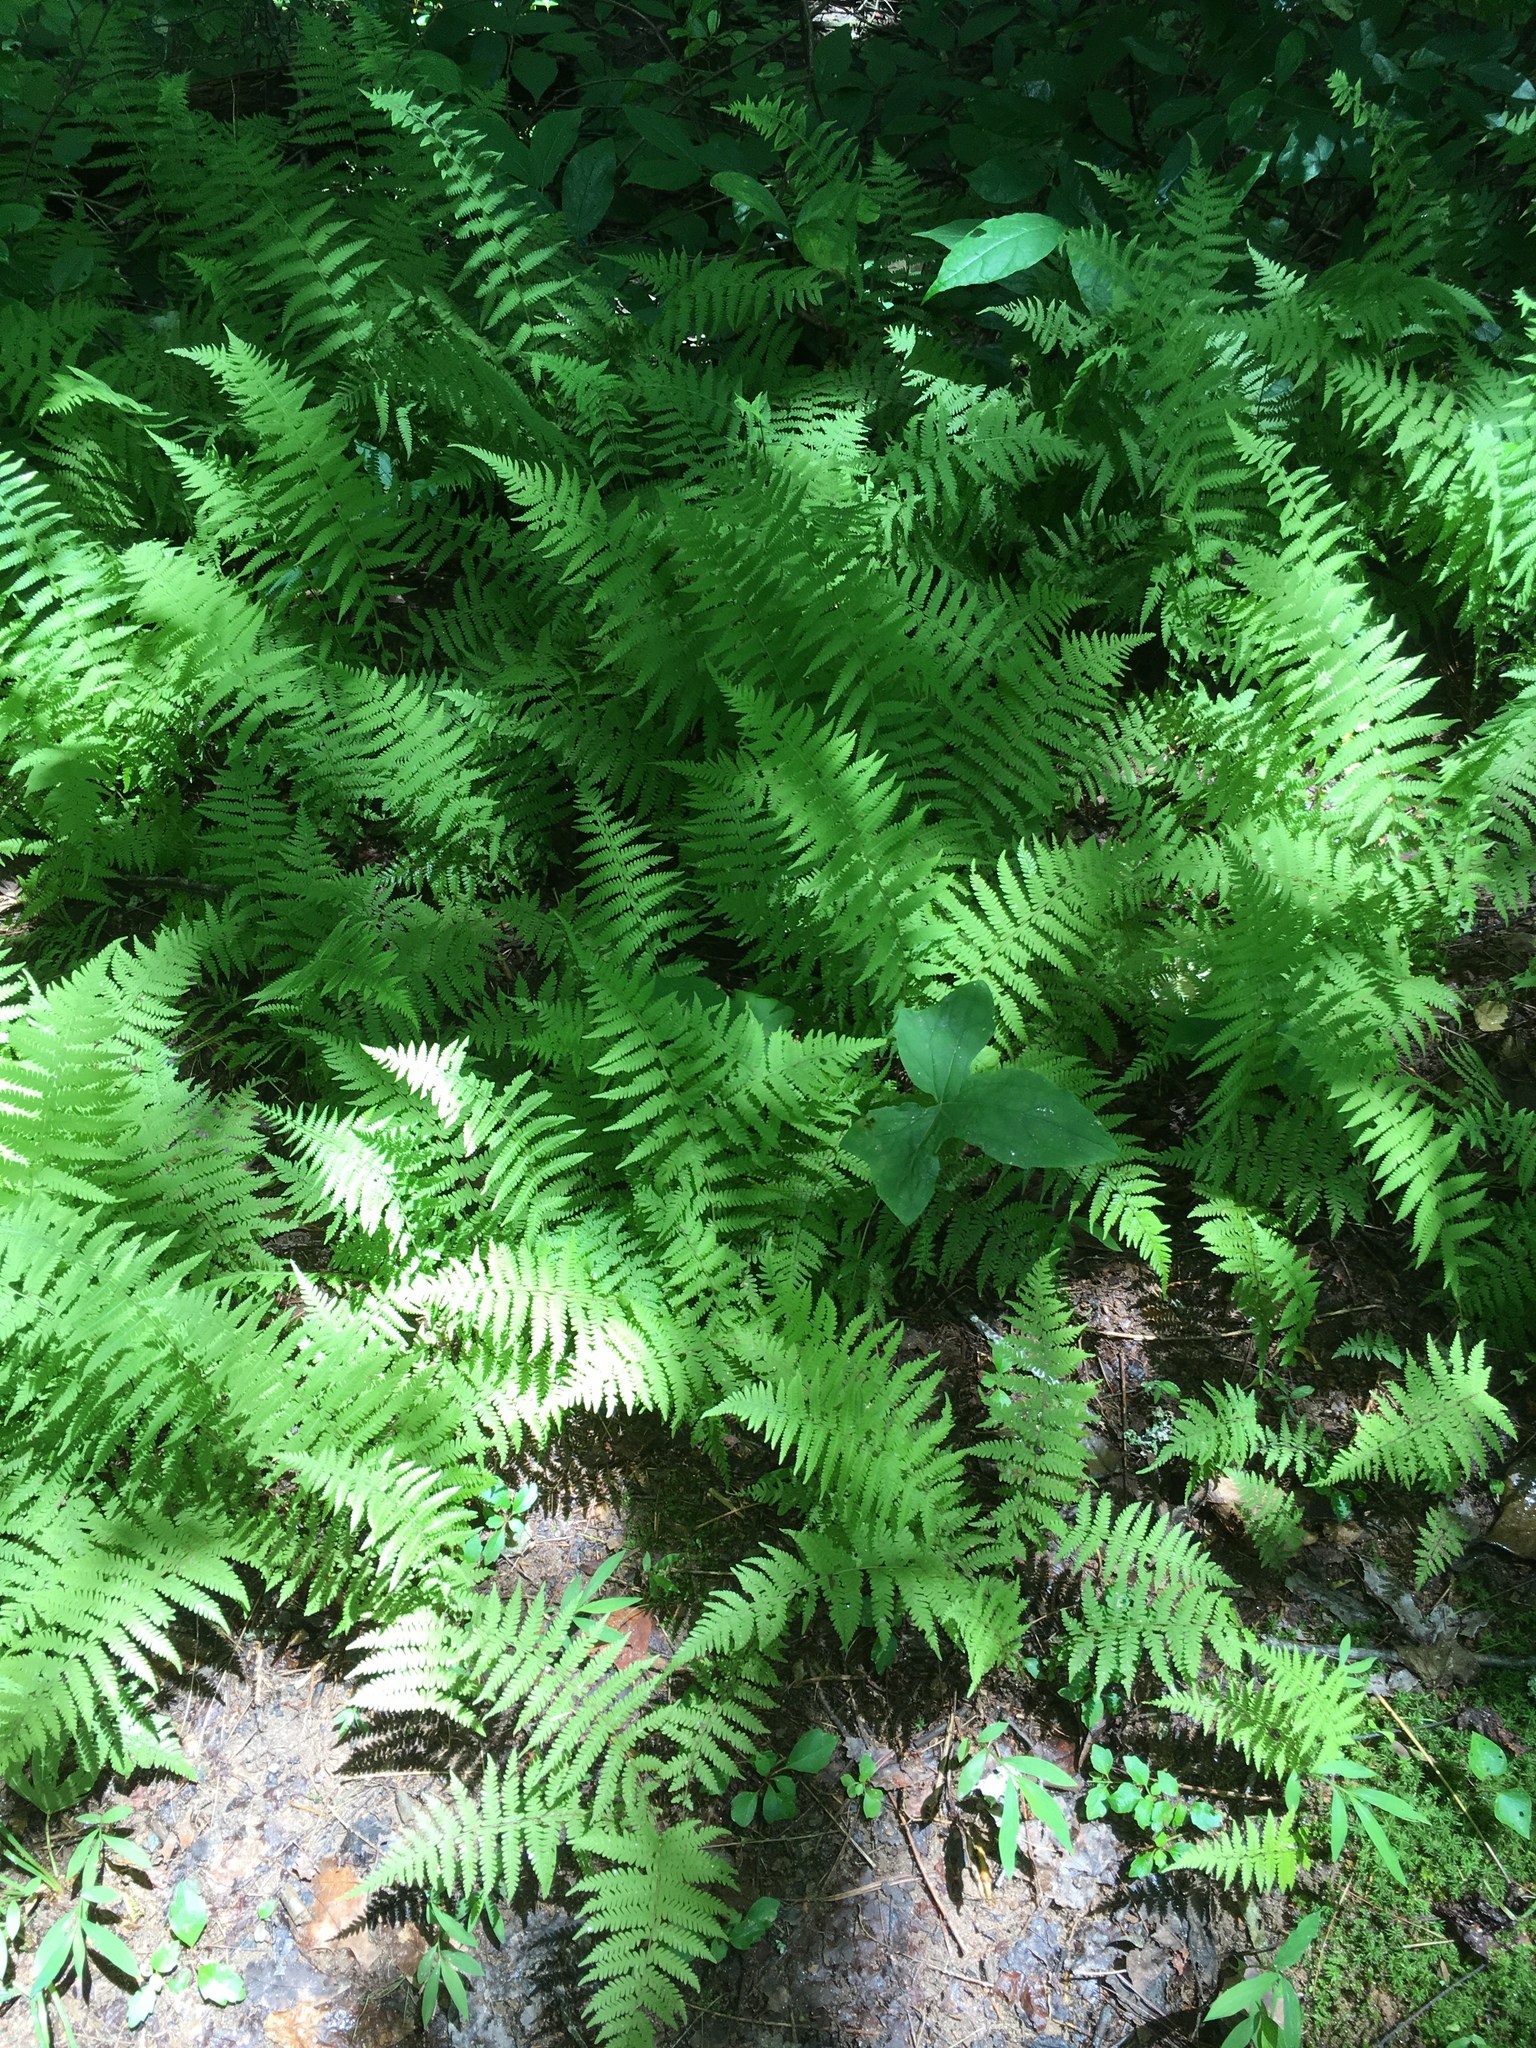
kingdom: Plantae
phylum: Tracheophyta
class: Polypodiopsida
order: Polypodiales
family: Thelypteridaceae
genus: Amauropelta
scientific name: Amauropelta noveboracensis
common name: New york fern
